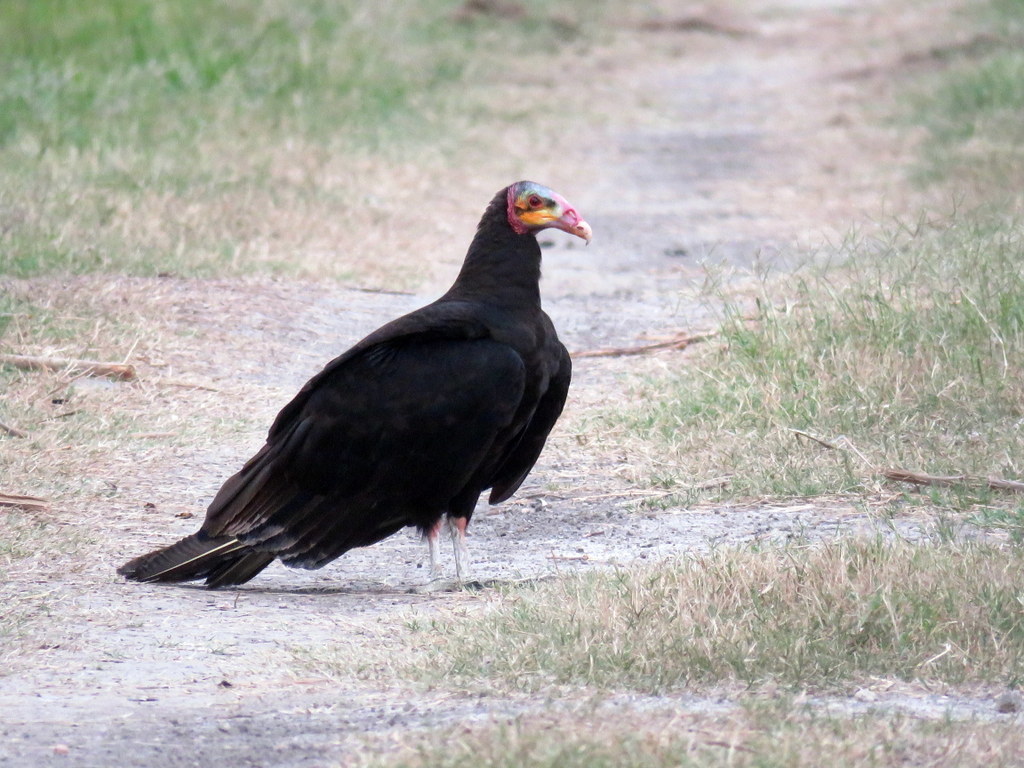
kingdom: Animalia
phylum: Chordata
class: Aves
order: Accipitriformes
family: Cathartidae
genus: Cathartes
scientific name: Cathartes burrovianus
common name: Lesser yellow-headed vulture
